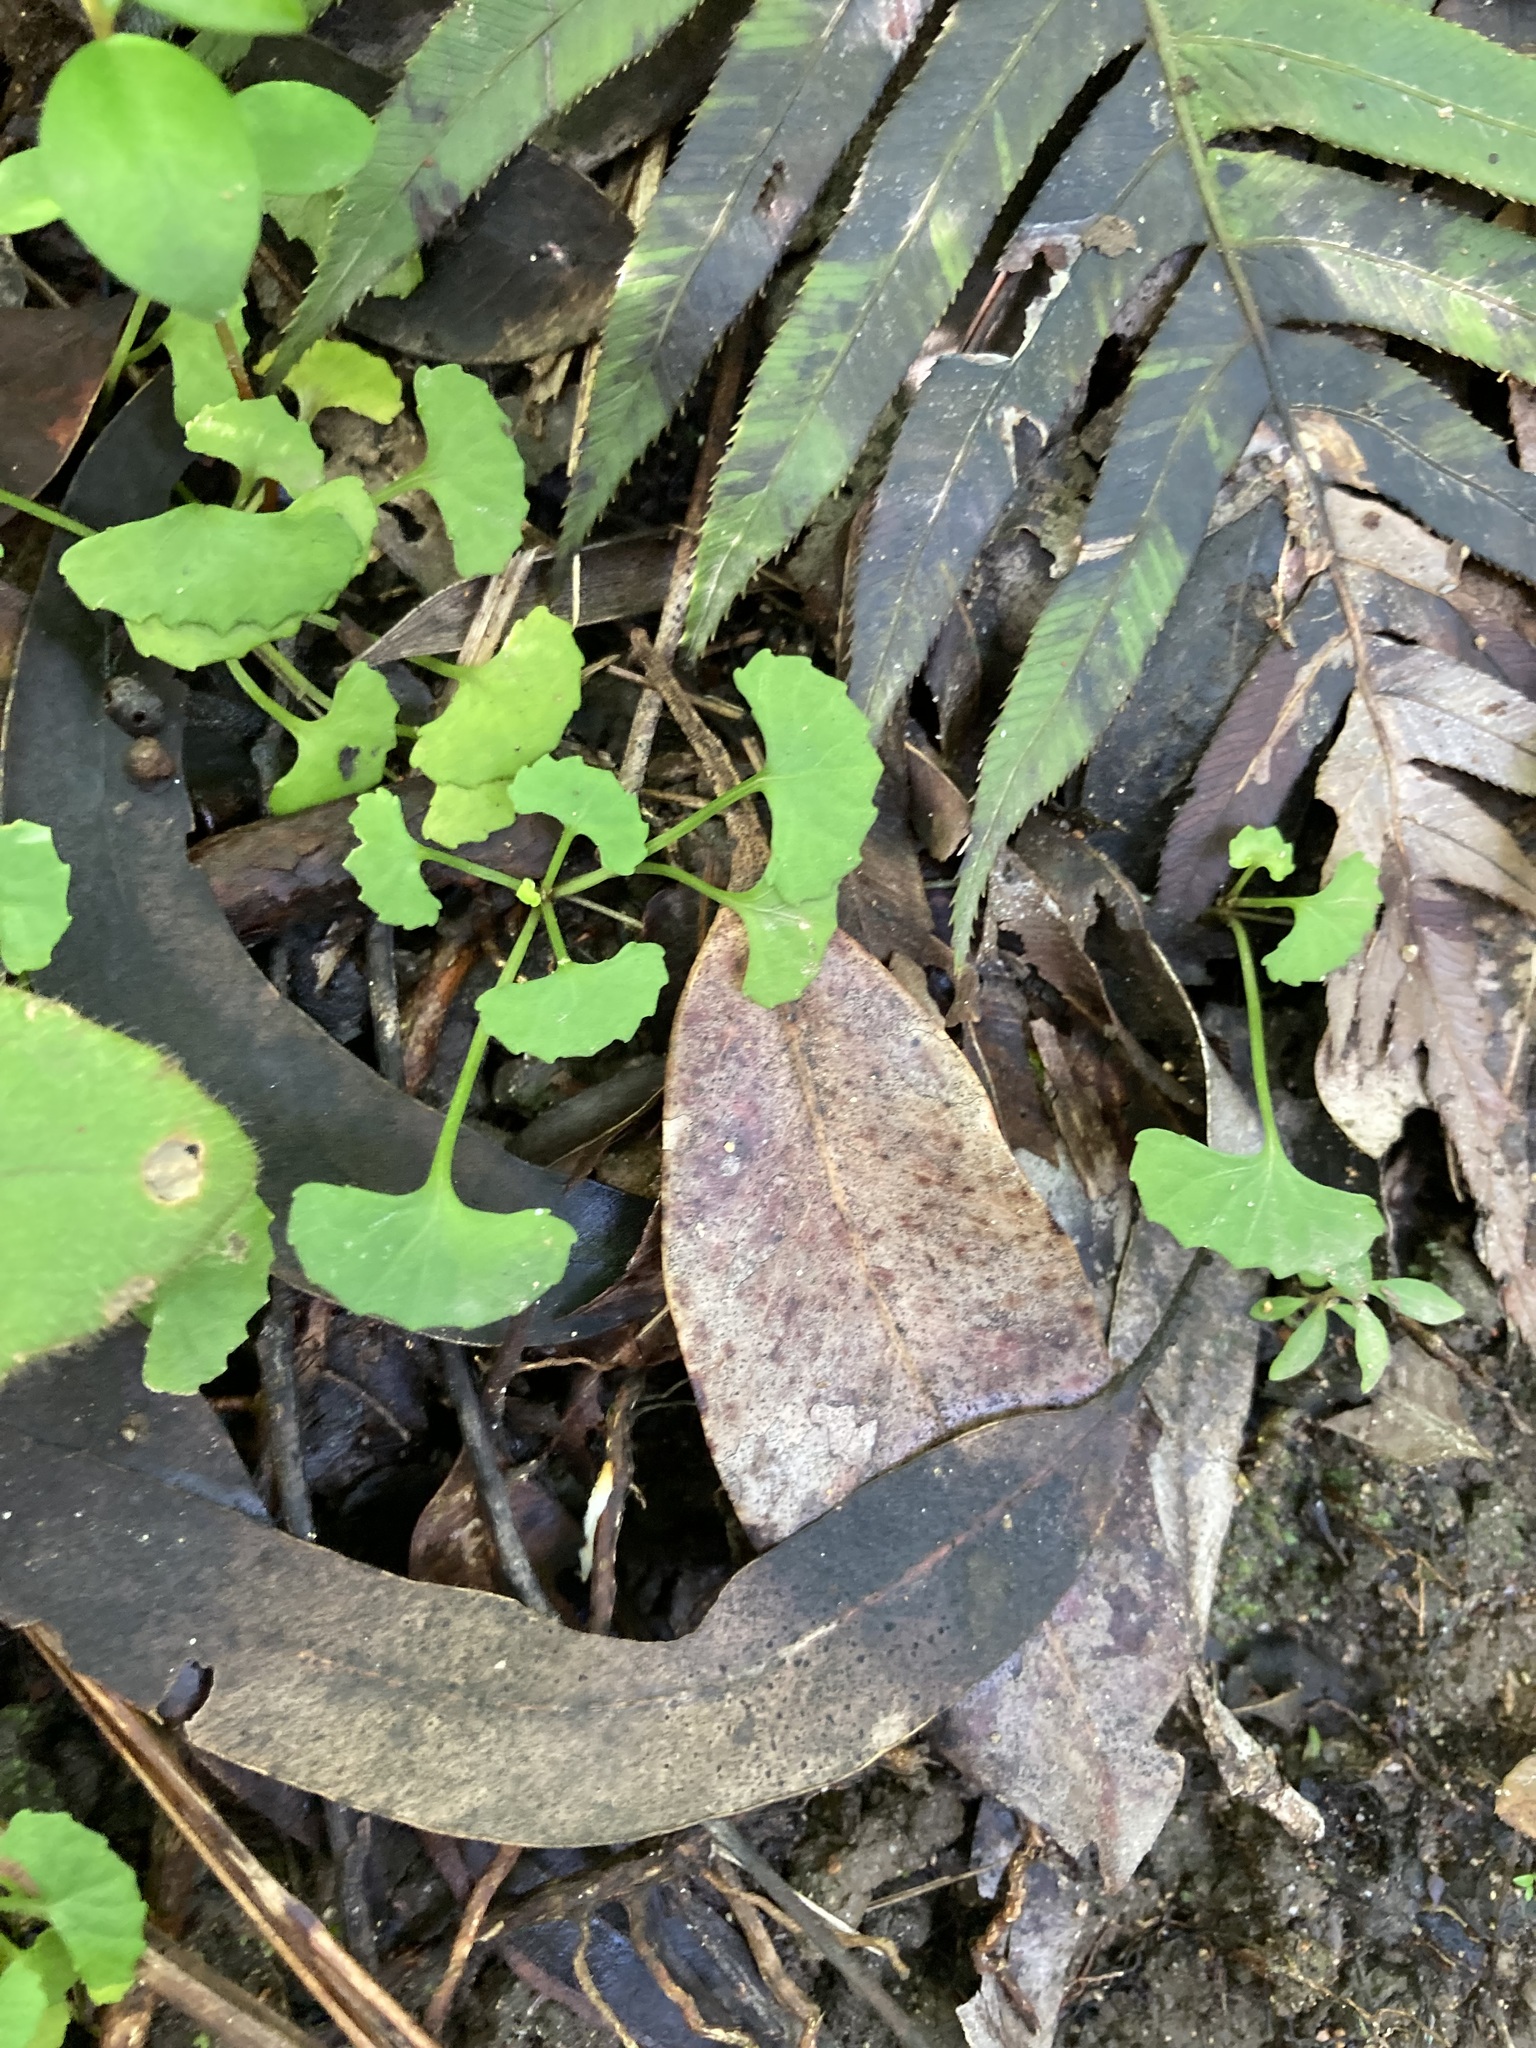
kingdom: Plantae
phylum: Tracheophyta
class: Magnoliopsida
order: Malpighiales
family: Violaceae
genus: Viola
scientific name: Viola silicestris
